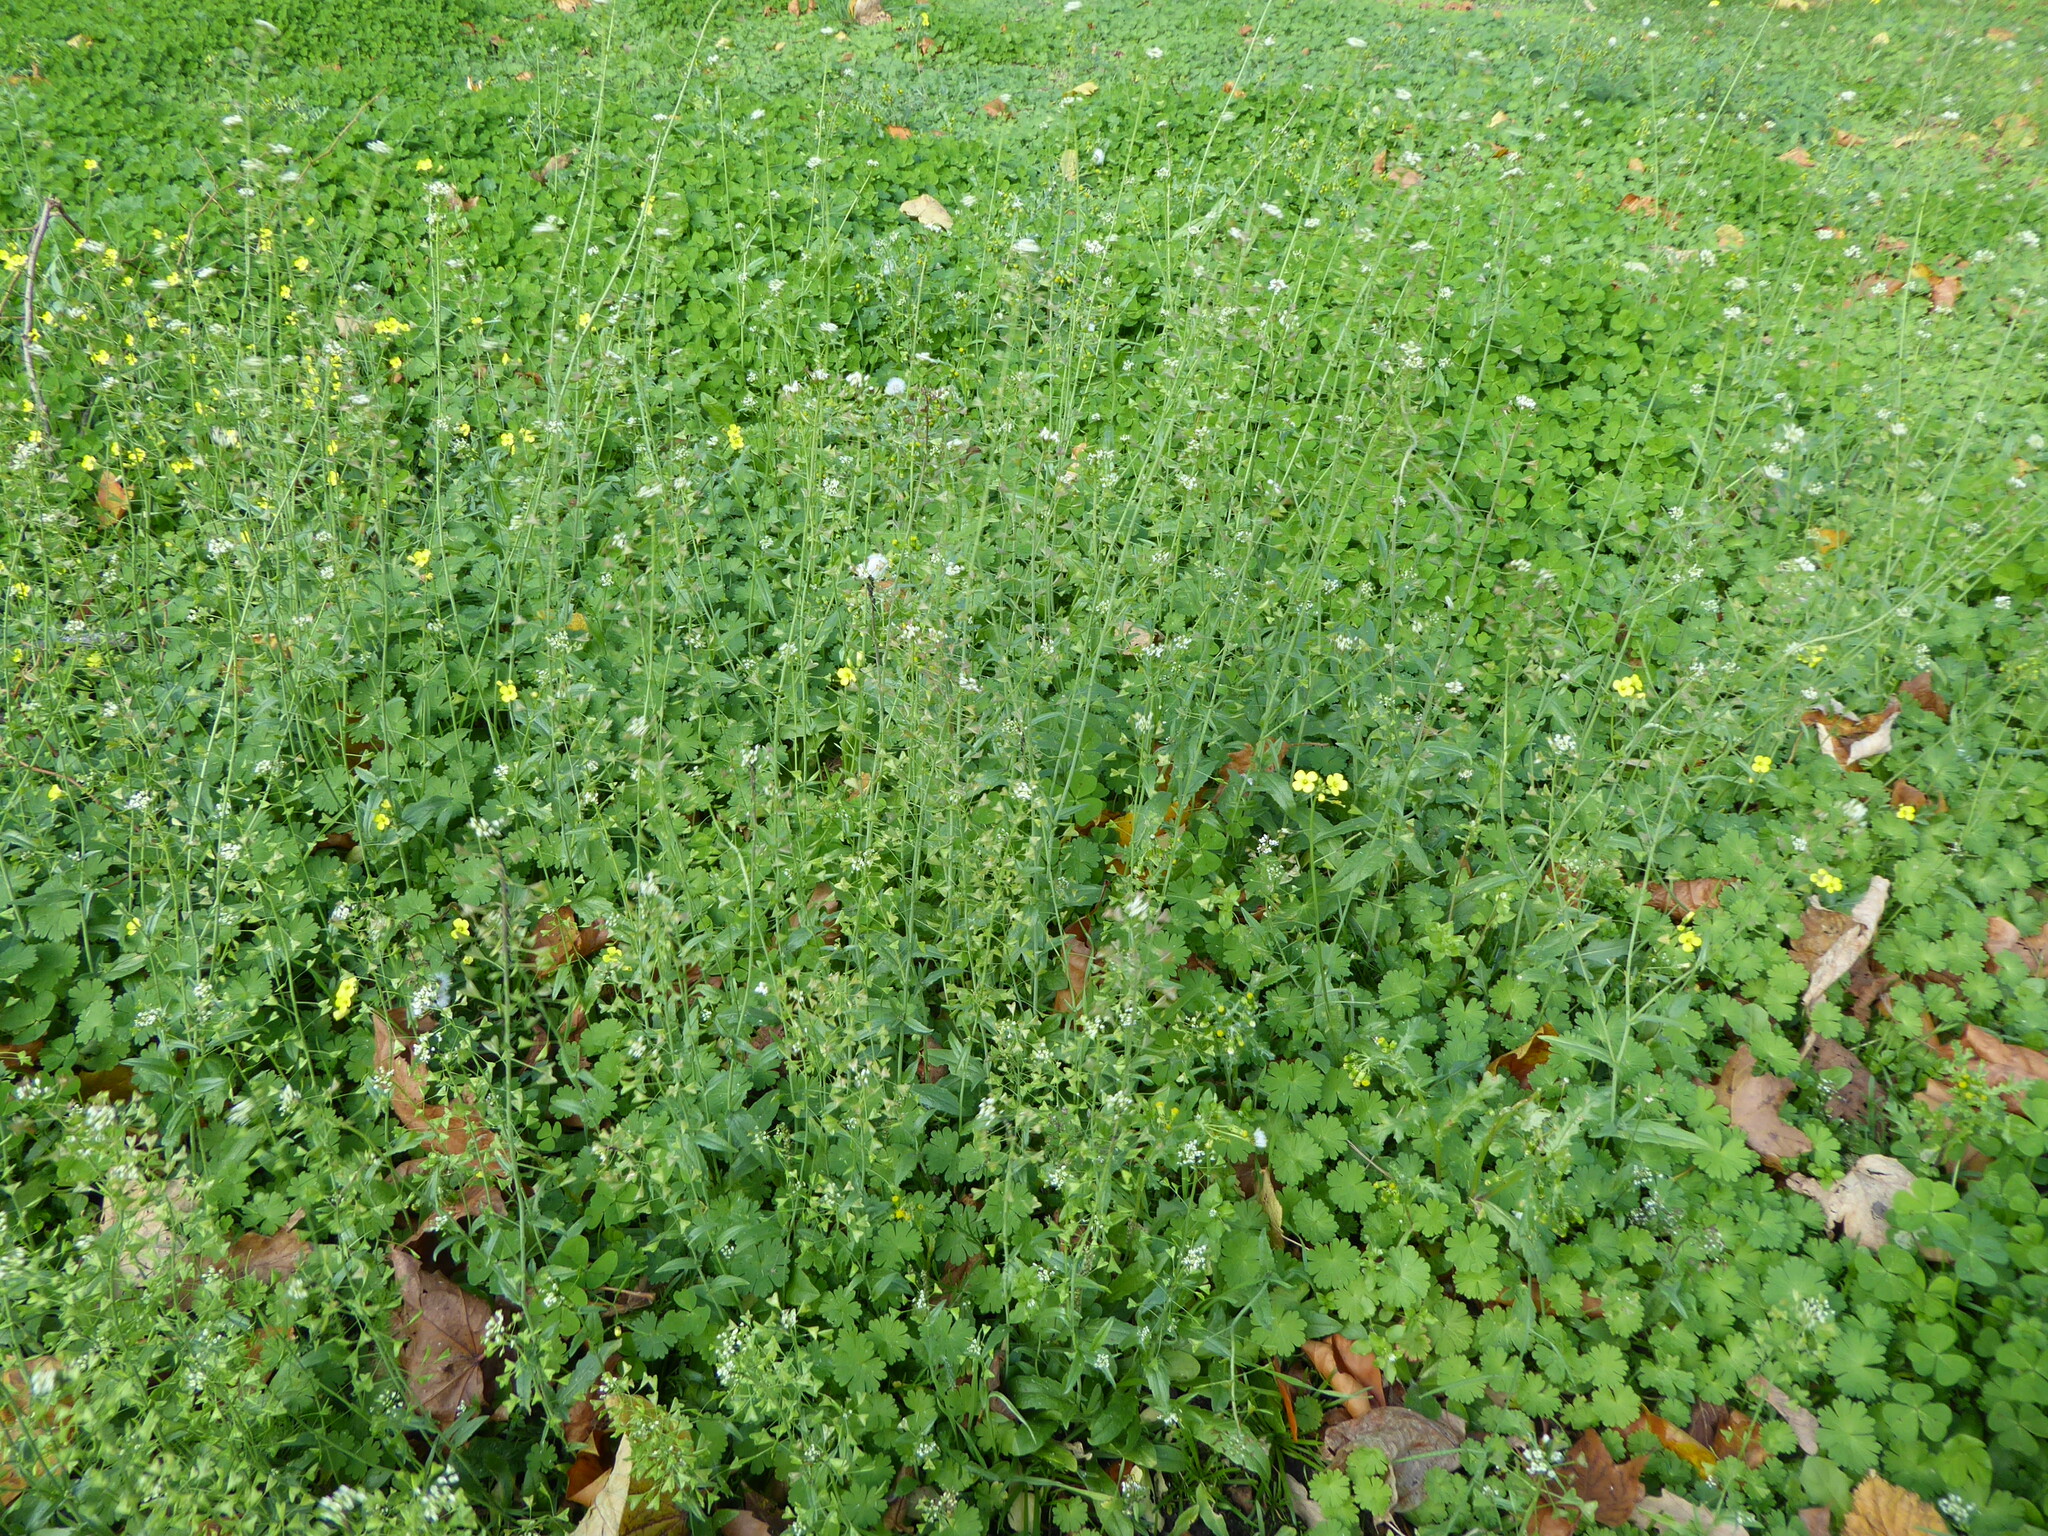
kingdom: Plantae
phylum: Tracheophyta
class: Magnoliopsida
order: Brassicales
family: Brassicaceae
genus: Capsella
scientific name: Capsella bursa-pastoris
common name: Shepherd's purse
